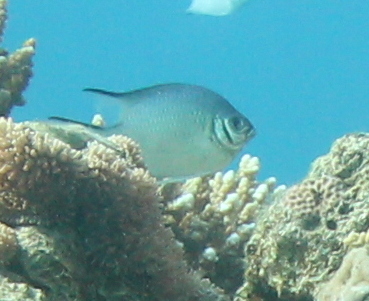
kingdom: Animalia
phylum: Chordata
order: Perciformes
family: Pomacentridae
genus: Amblyglyphidodon
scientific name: Amblyglyphidodon indicus
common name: Maldives damselfish
